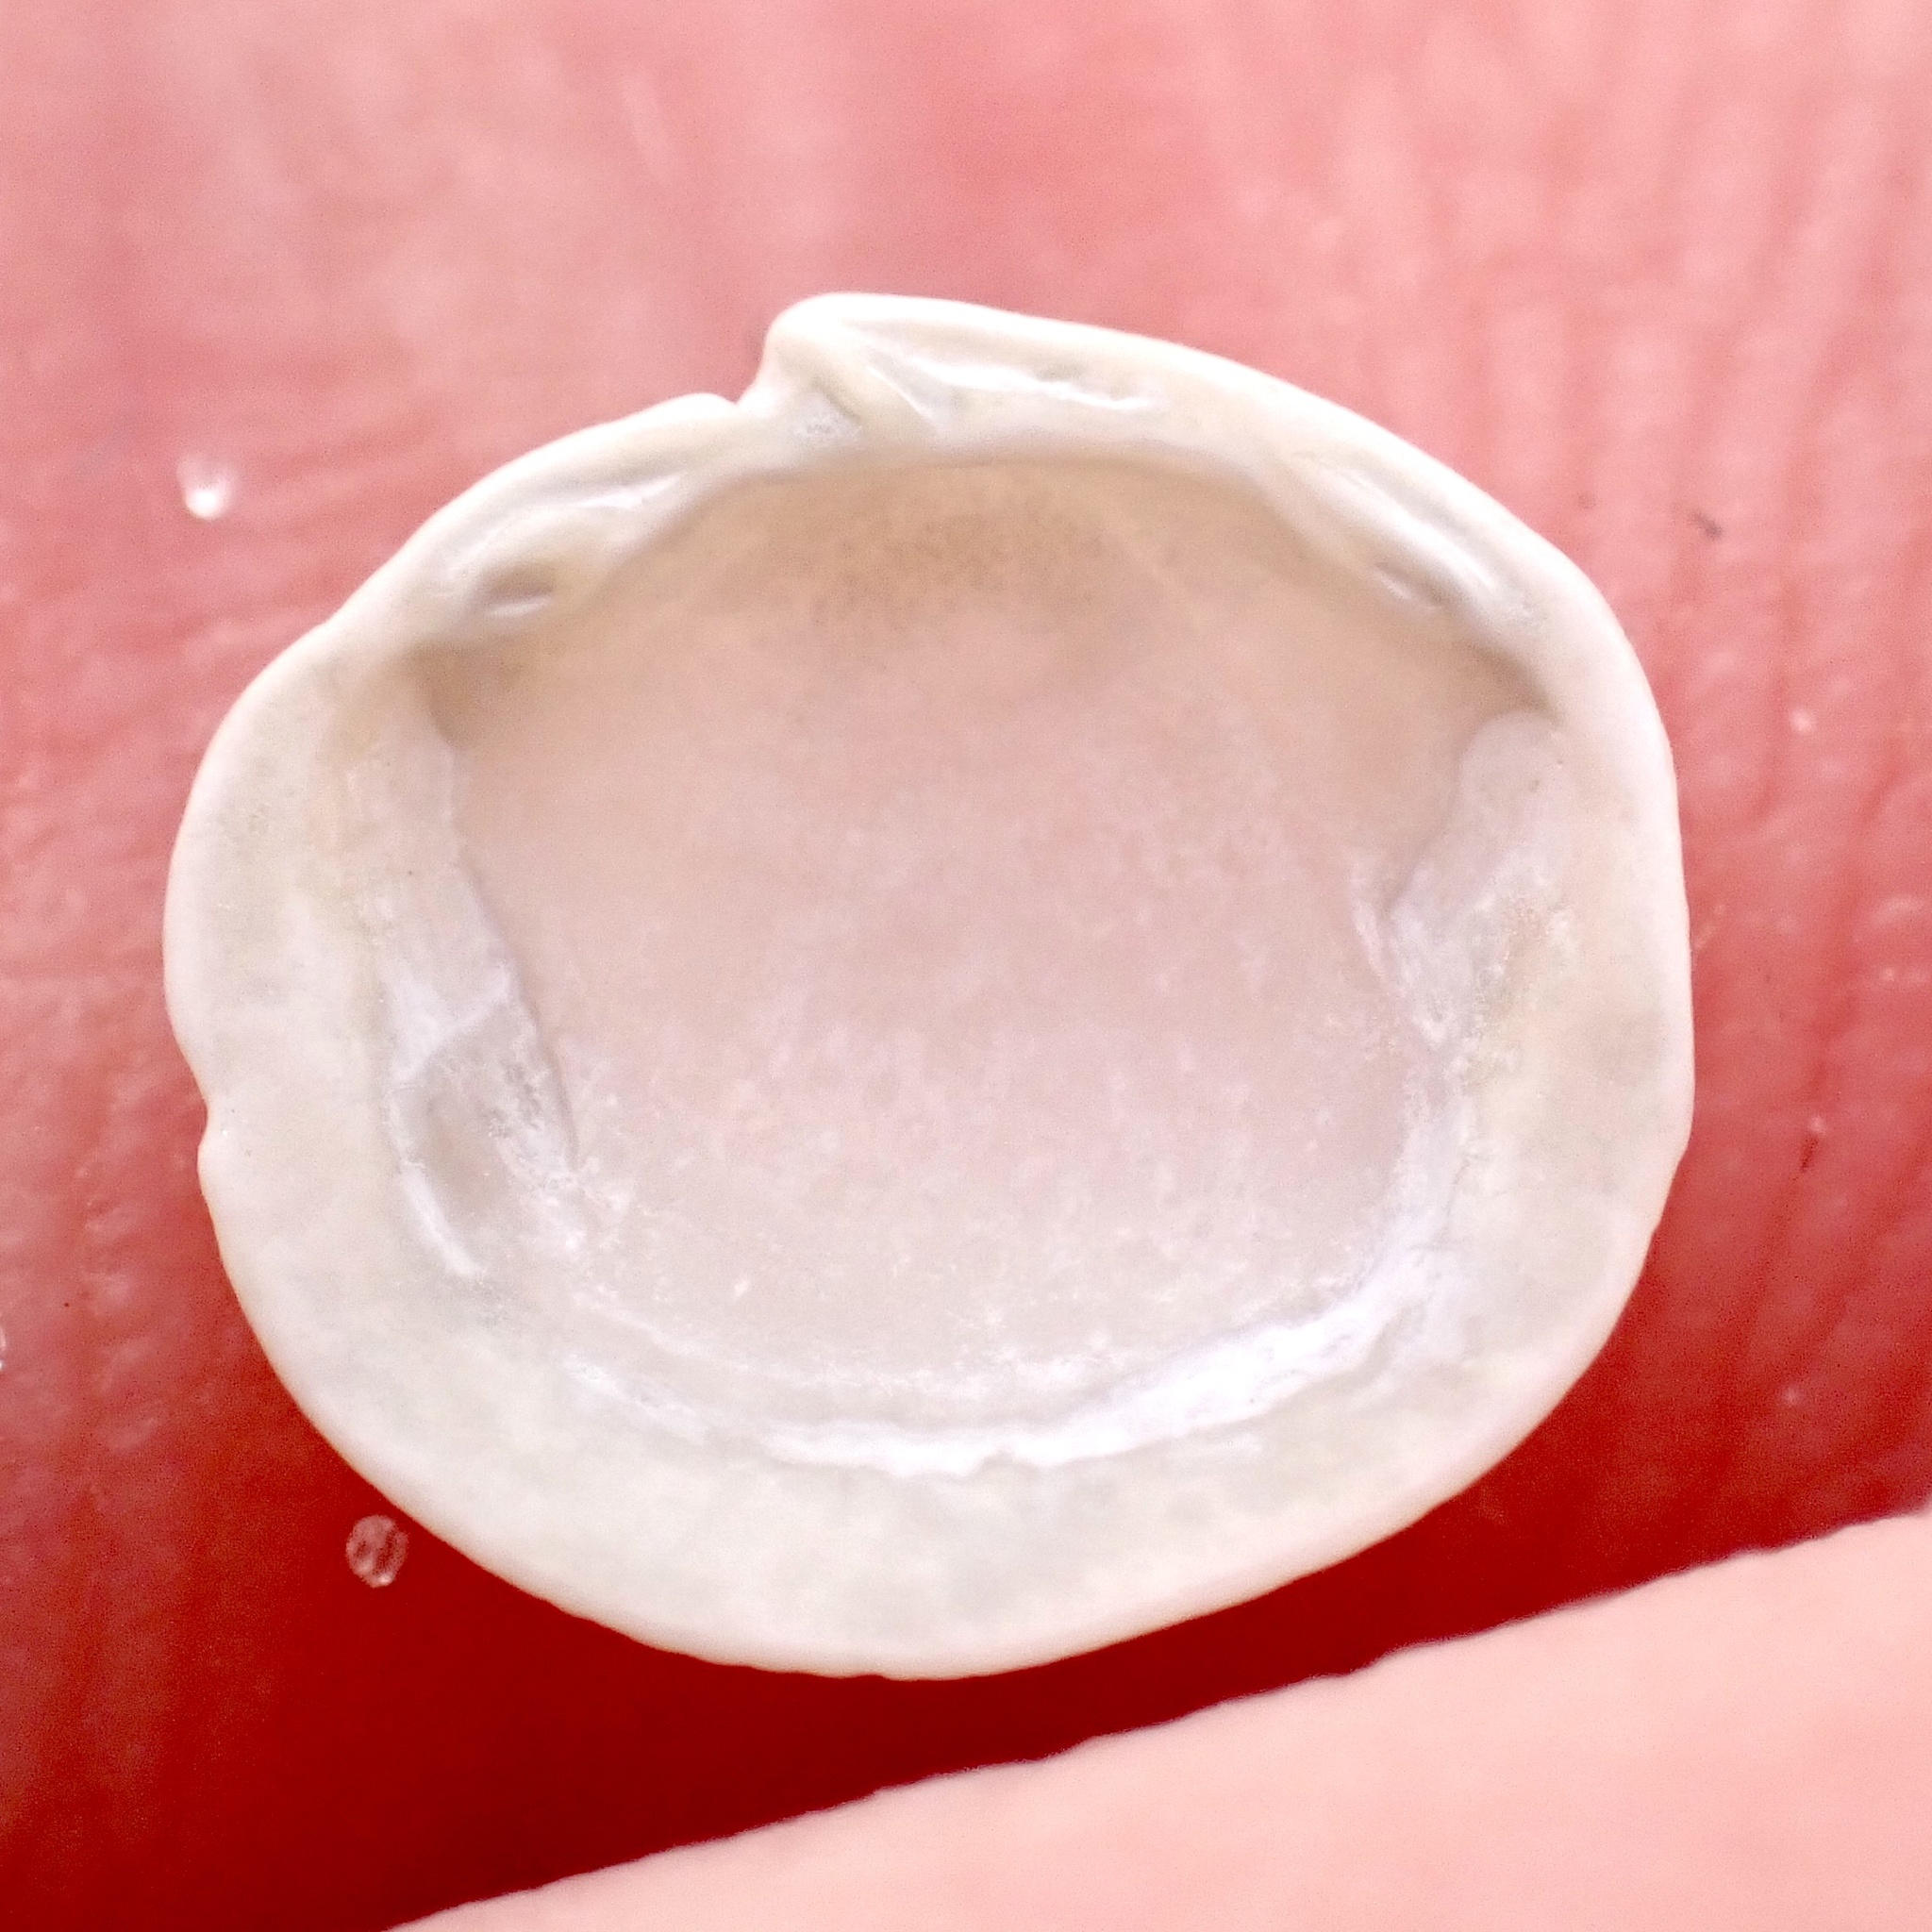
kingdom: Animalia
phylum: Mollusca
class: Bivalvia
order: Lucinida
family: Lucinidae
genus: Lucinisca
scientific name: Lucinisca nassula
